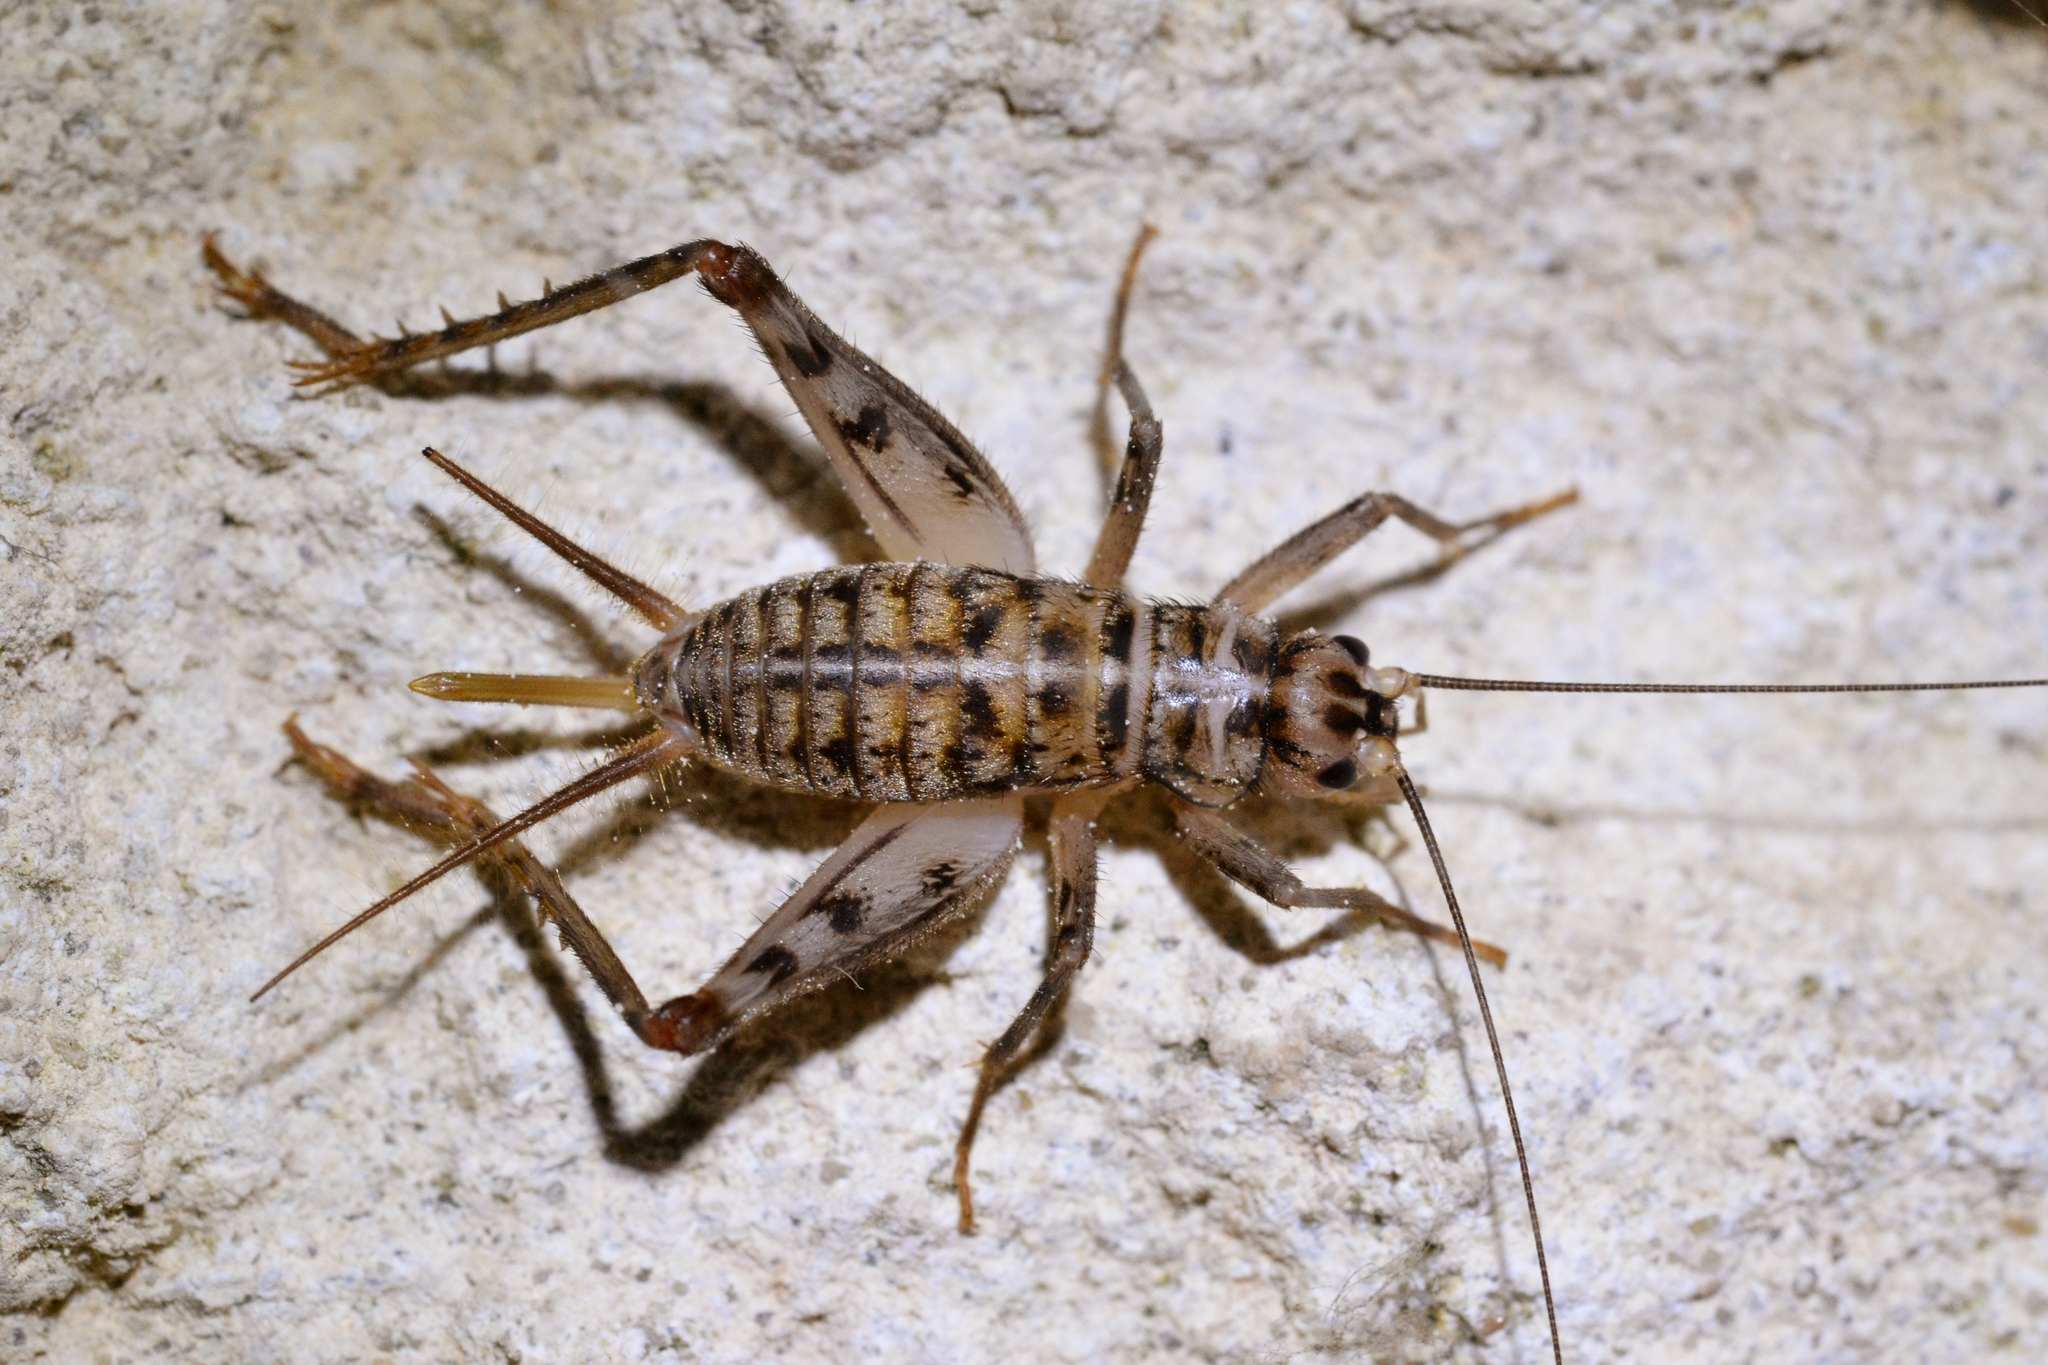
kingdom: Animalia
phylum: Arthropoda
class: Insecta
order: Orthoptera
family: Gryllidae
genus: Gryllomorpha
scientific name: Gryllomorpha dalmatina
